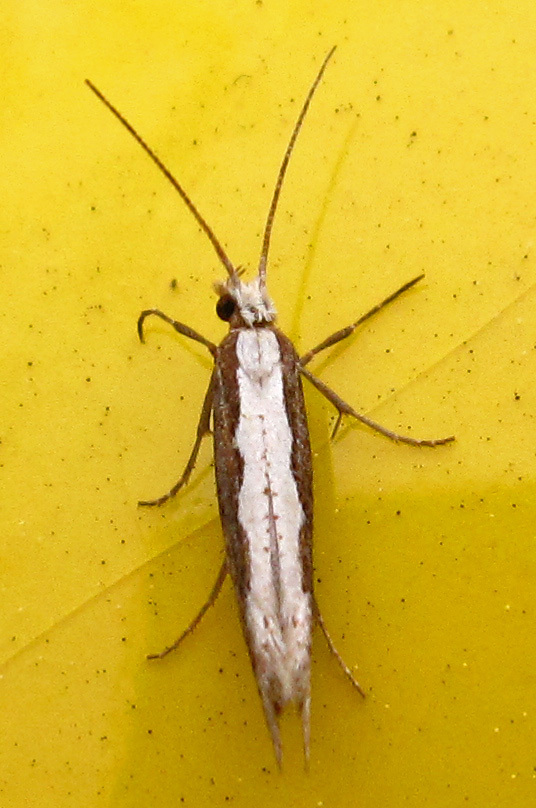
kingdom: Animalia
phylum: Arthropoda
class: Insecta
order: Lepidoptera
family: Plutellidae
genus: Plutella
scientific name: Plutella xylostella
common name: Diamond-back moth
